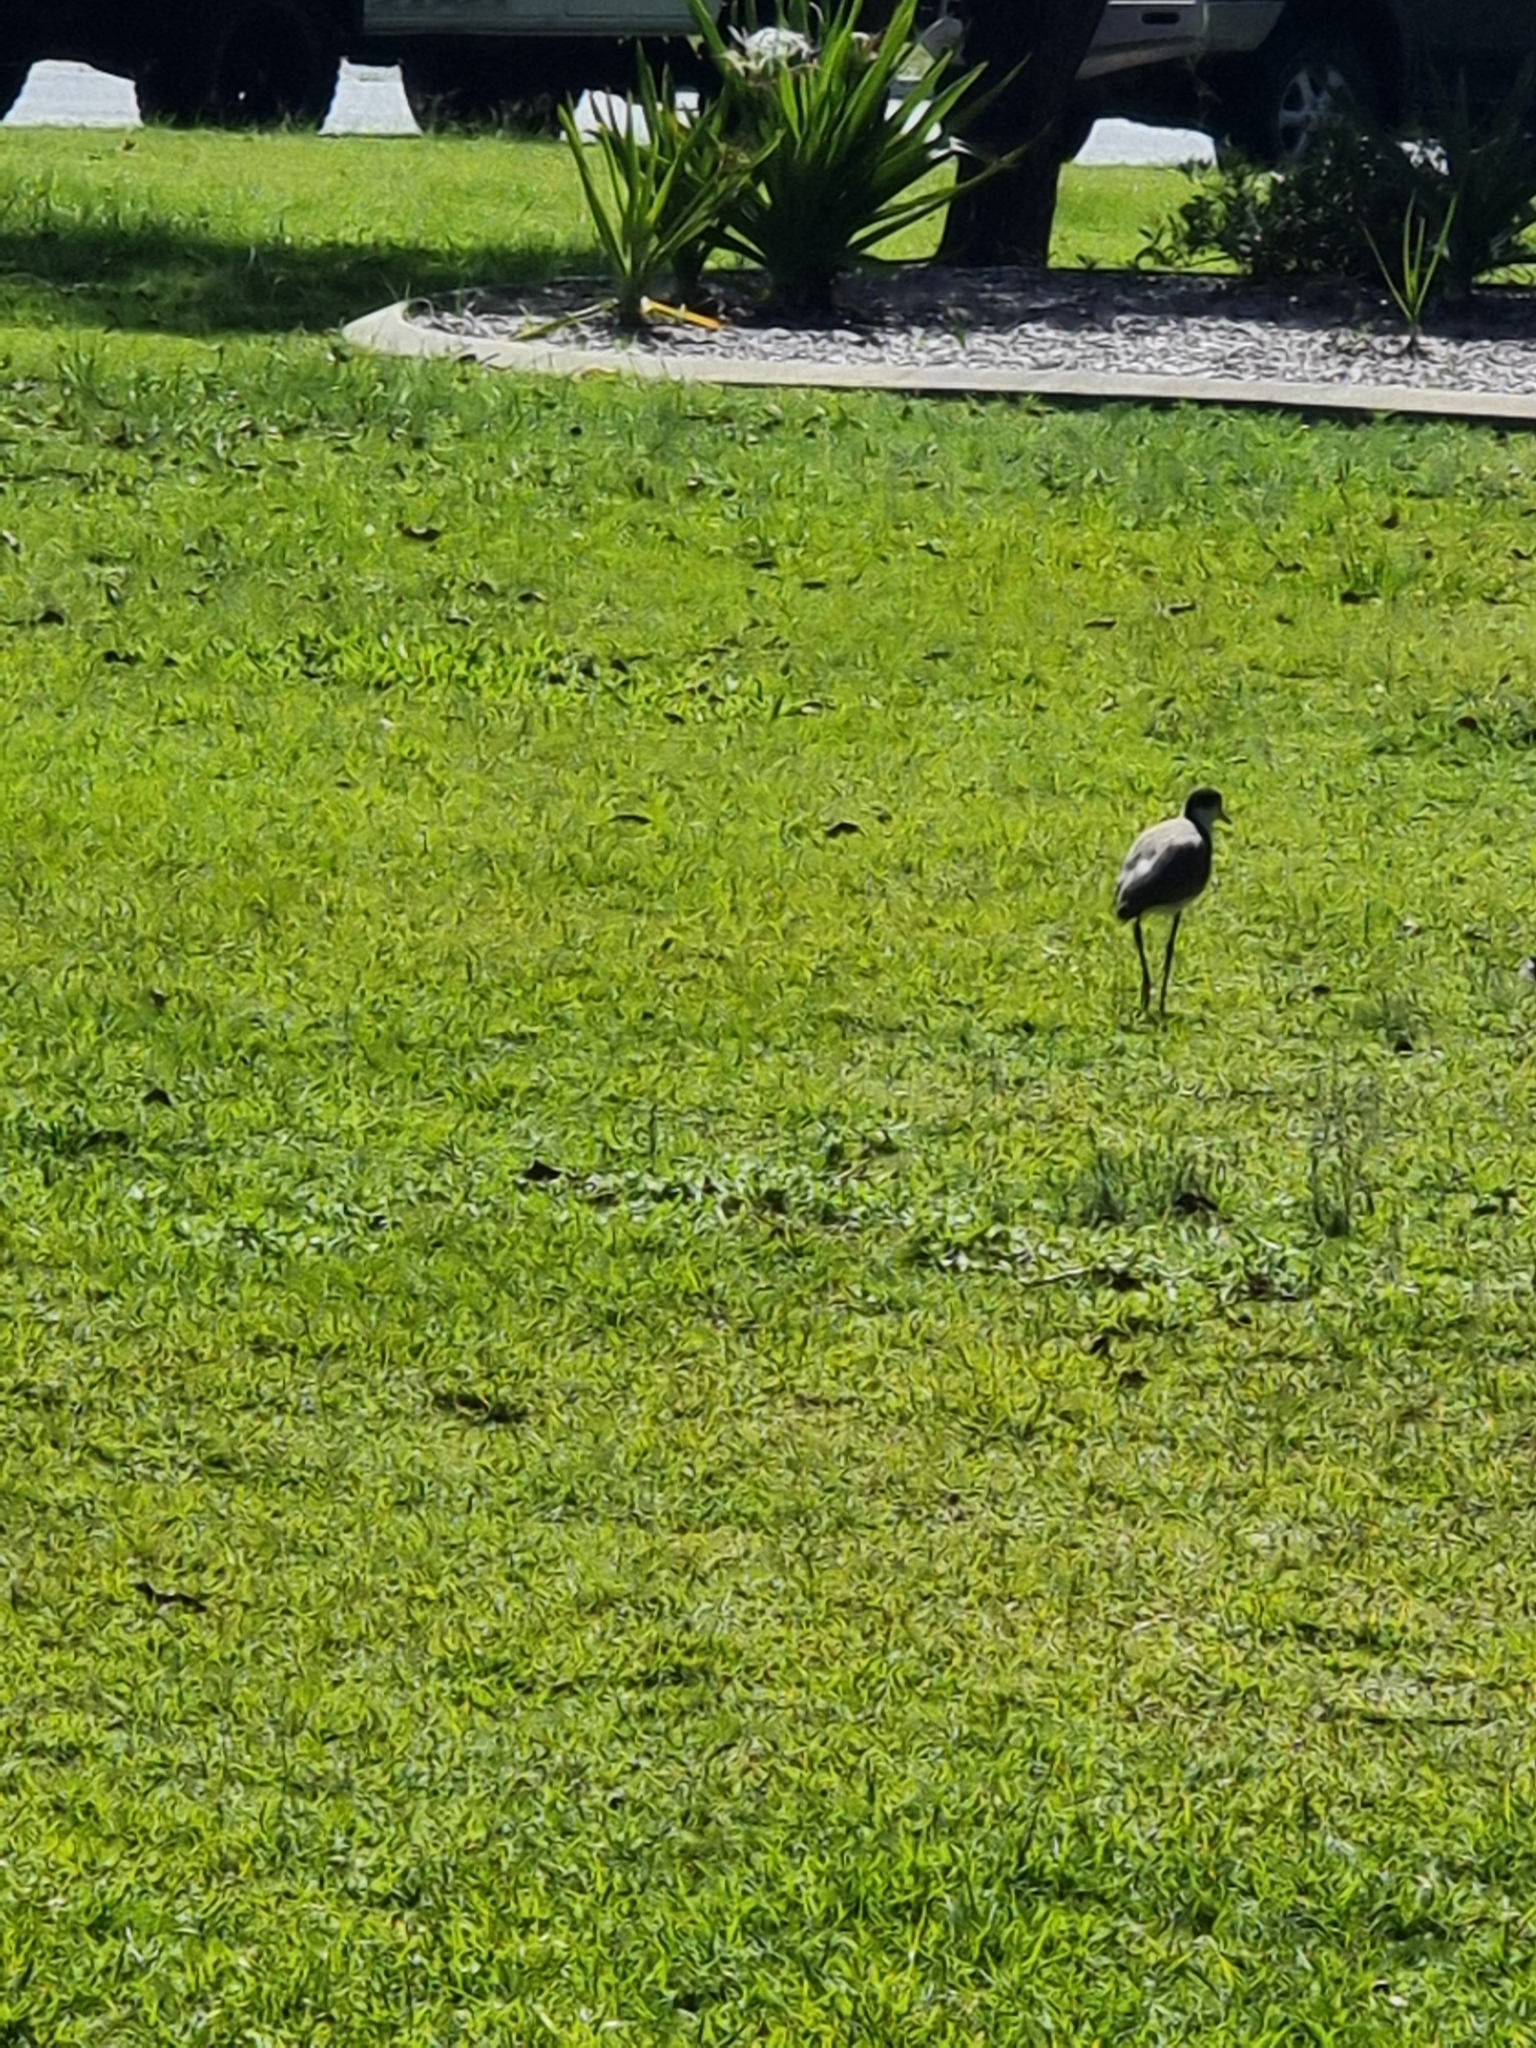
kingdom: Animalia
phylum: Chordata
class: Aves
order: Charadriiformes
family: Charadriidae
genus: Vanellus
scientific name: Vanellus miles
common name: Masked lapwing
